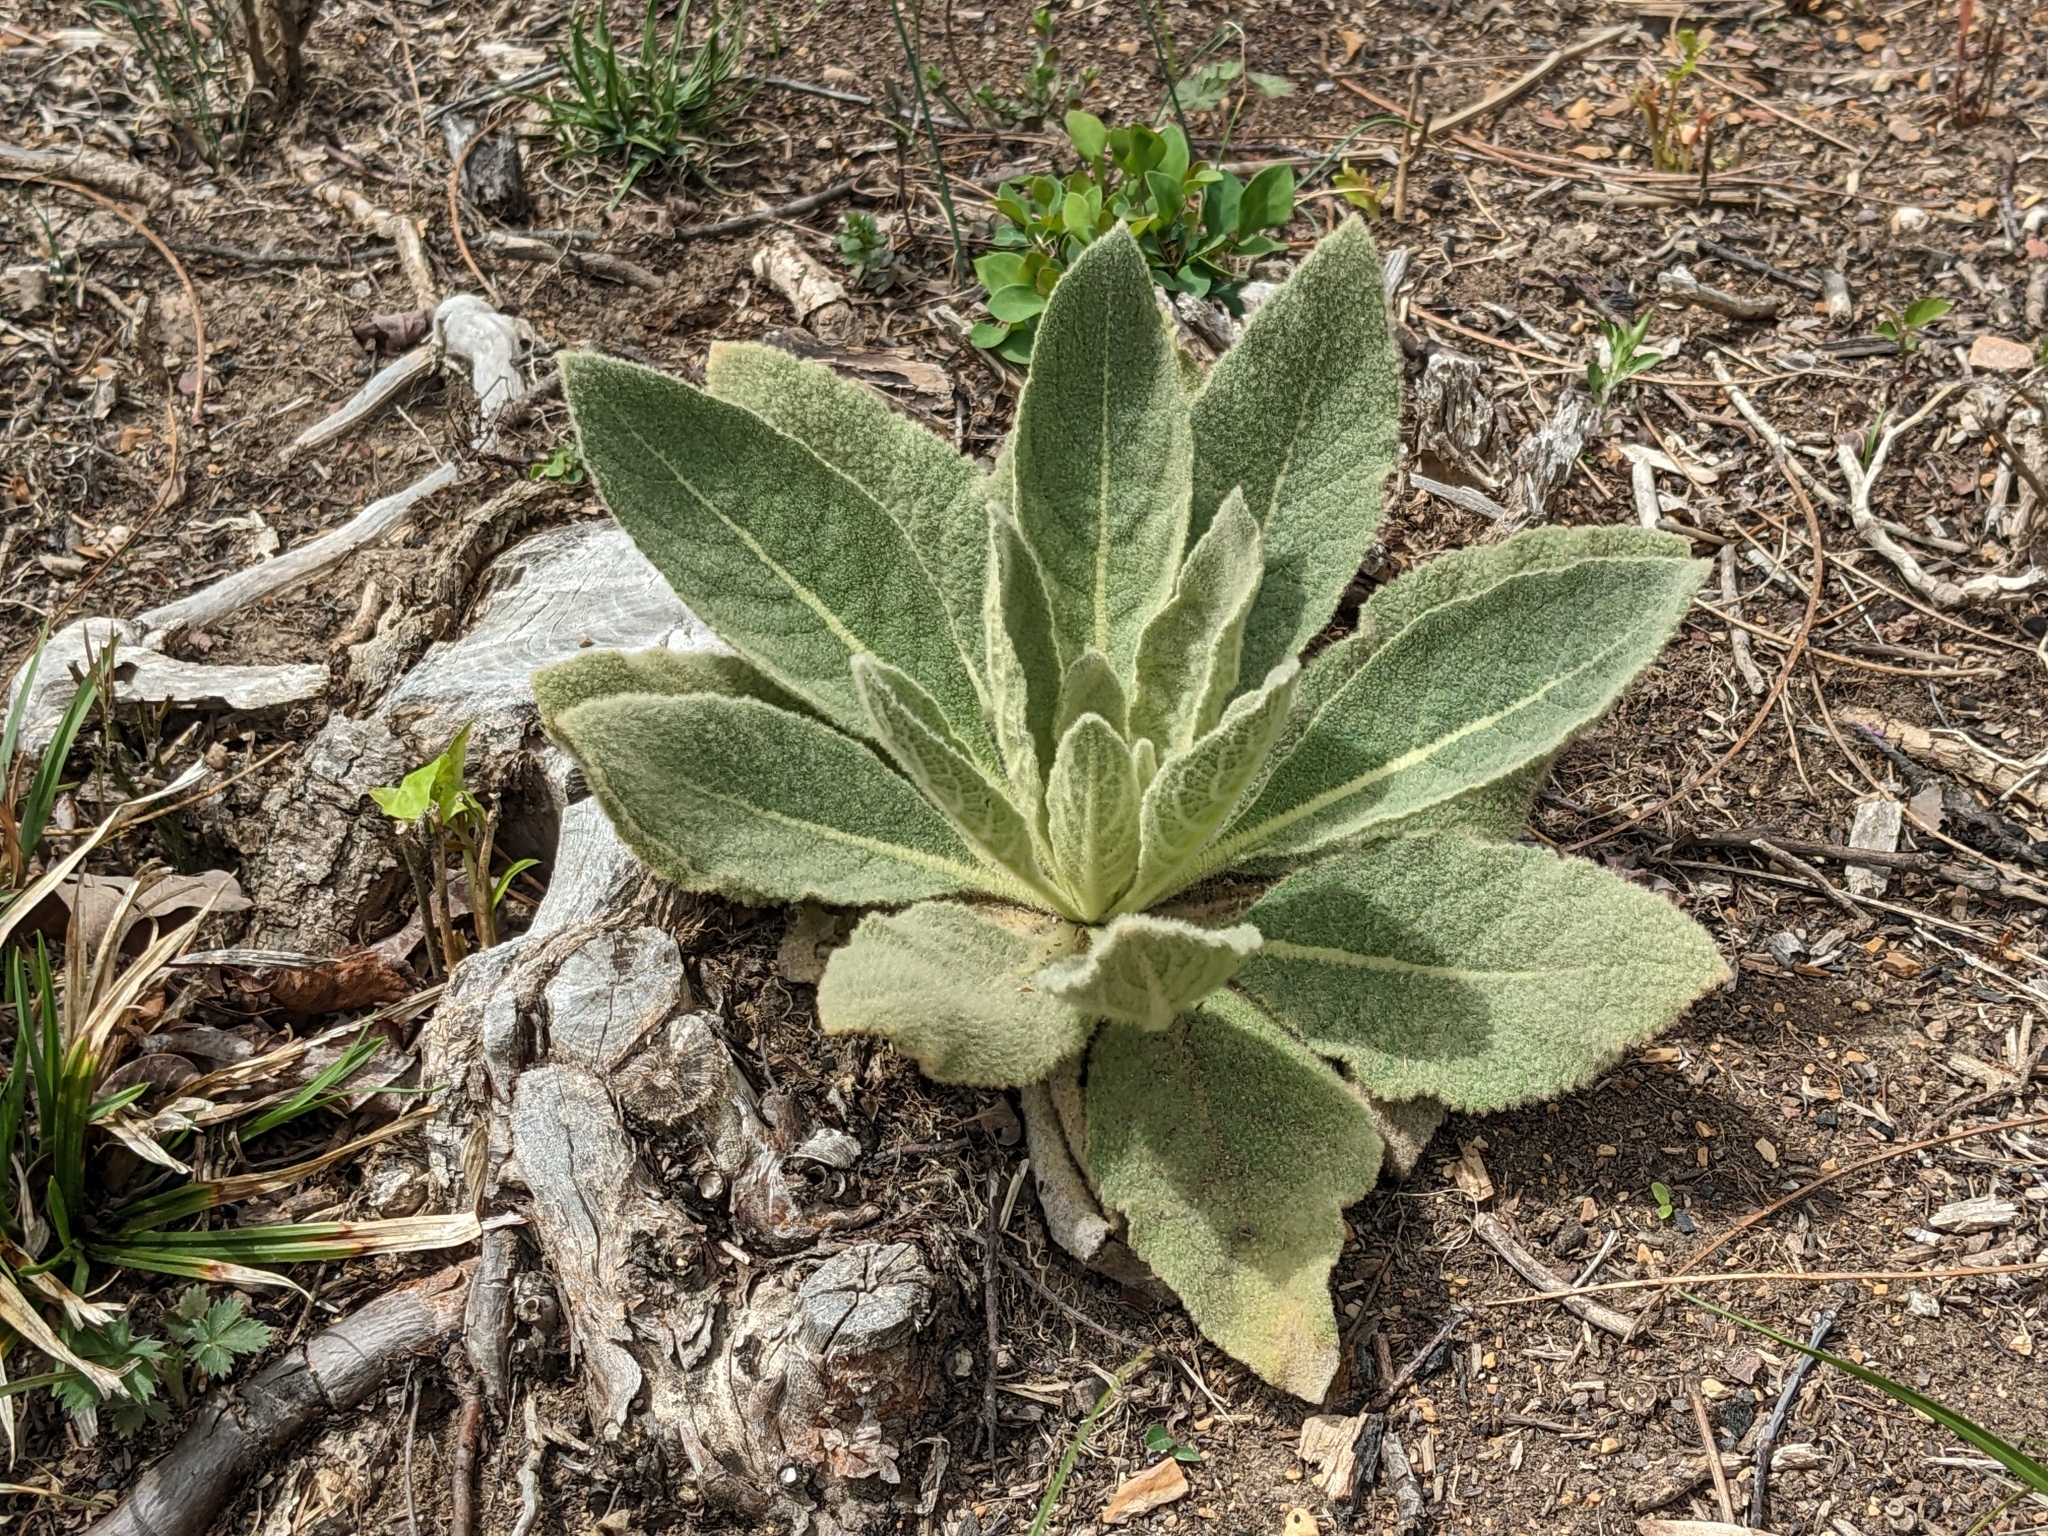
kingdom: Plantae
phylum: Tracheophyta
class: Magnoliopsida
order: Lamiales
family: Scrophulariaceae
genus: Verbascum
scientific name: Verbascum thapsus
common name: Common mullein
